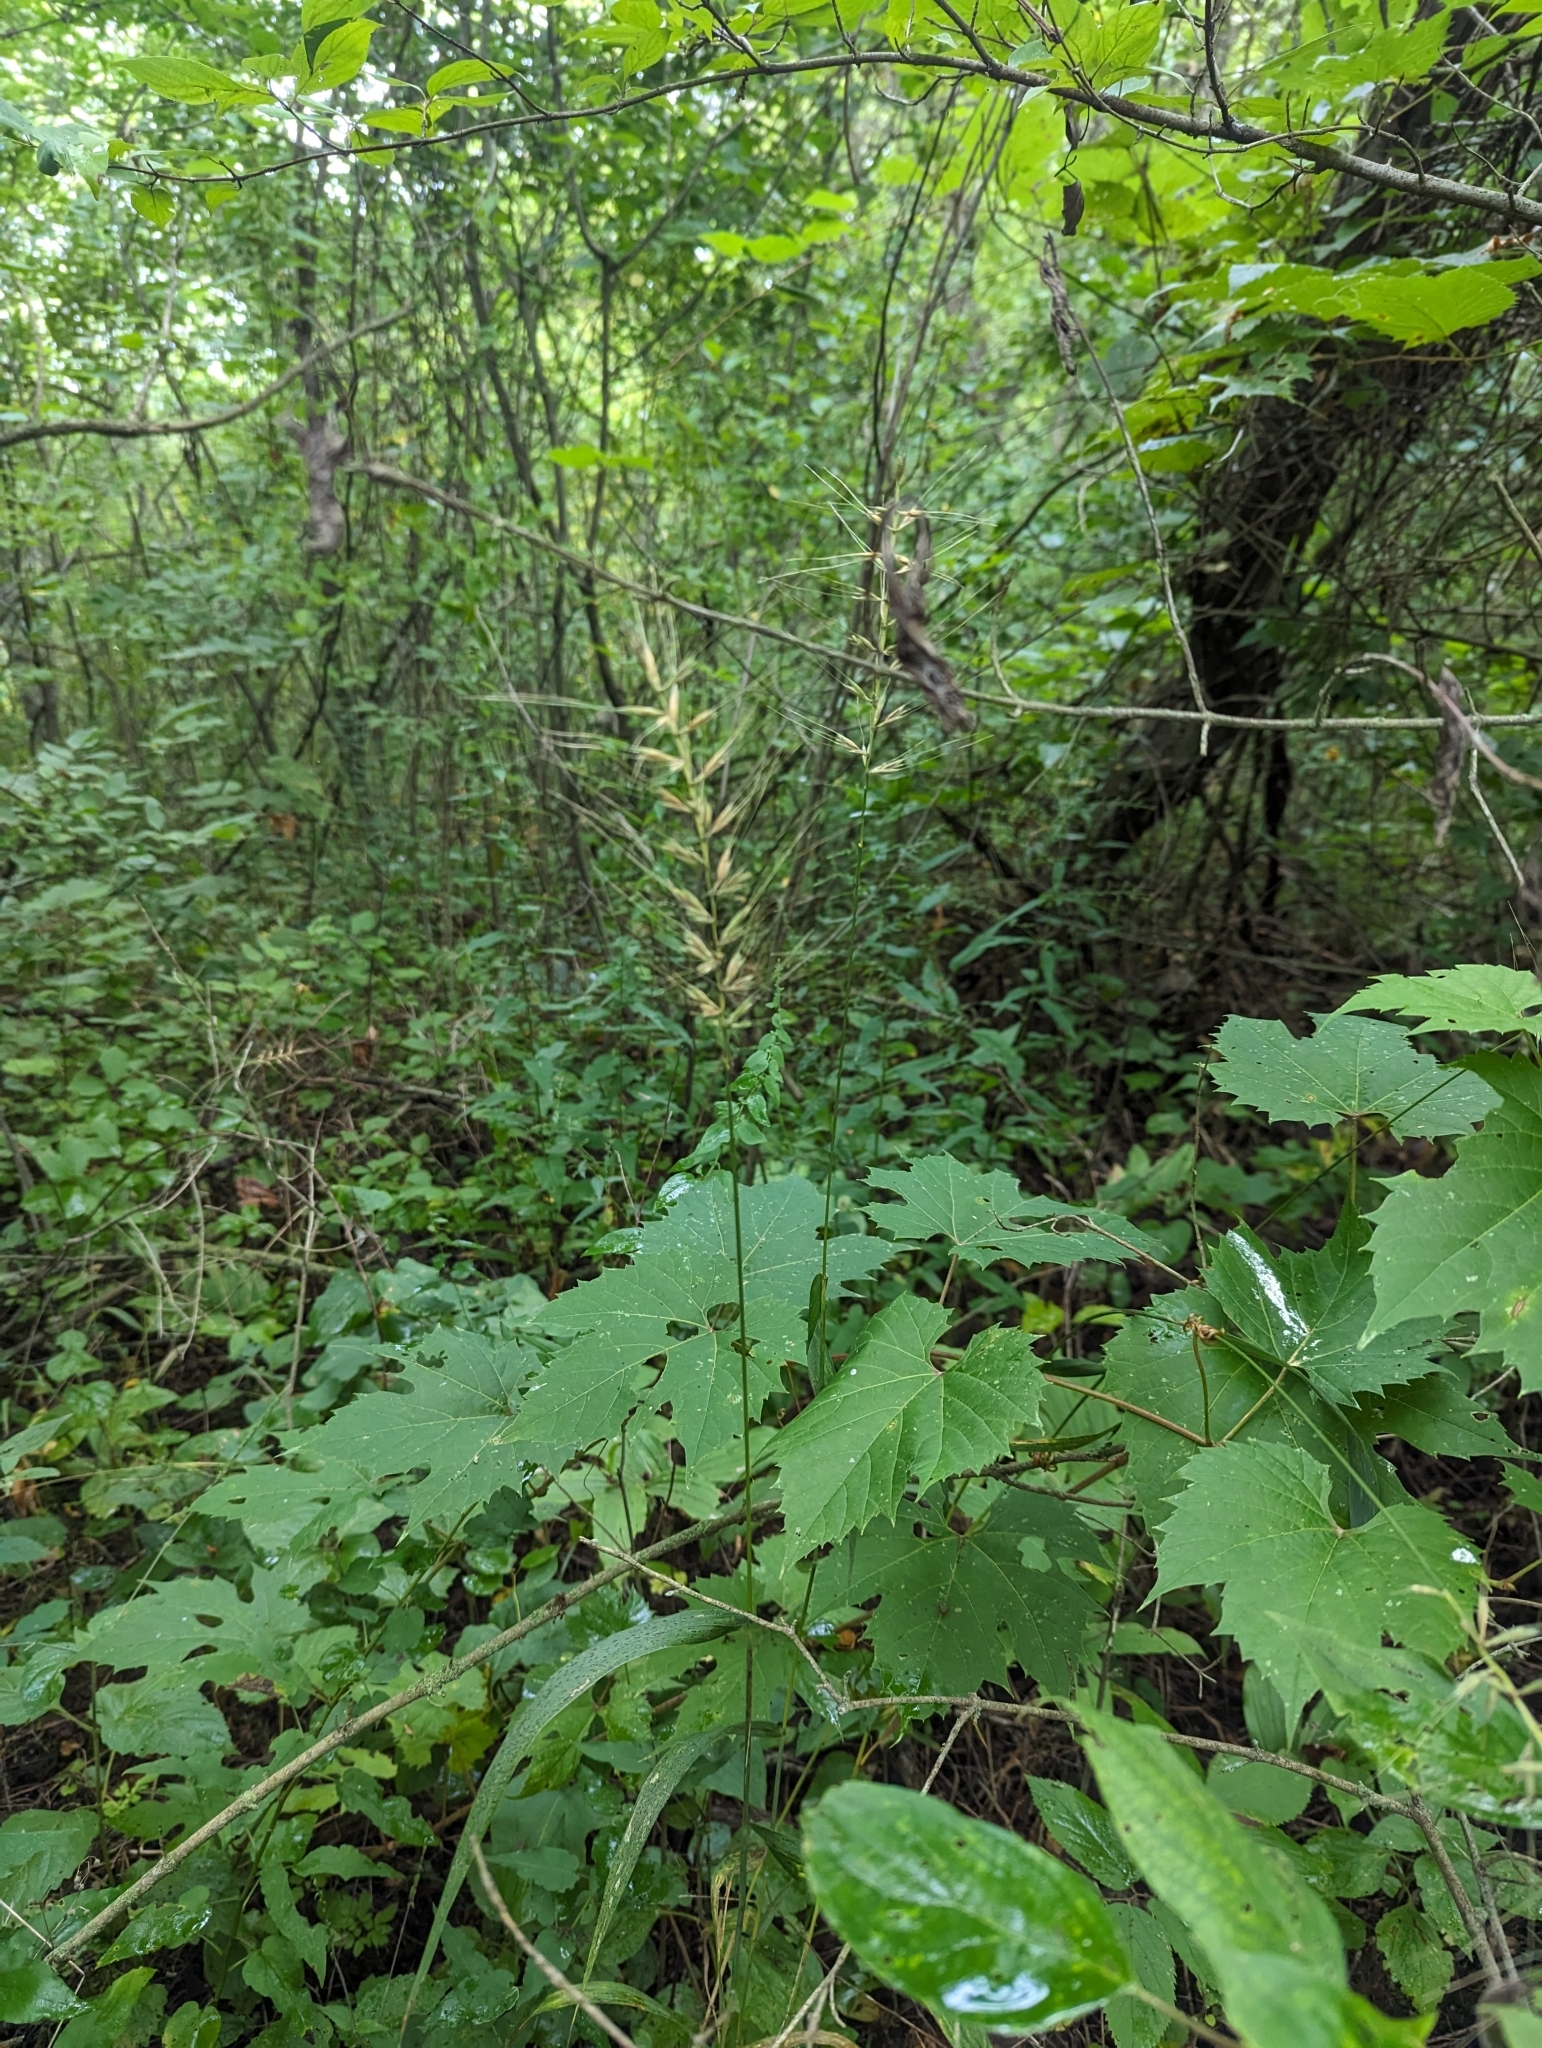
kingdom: Plantae
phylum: Tracheophyta
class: Liliopsida
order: Poales
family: Poaceae
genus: Elymus
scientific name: Elymus hystrix
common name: Bottlebrush grass
